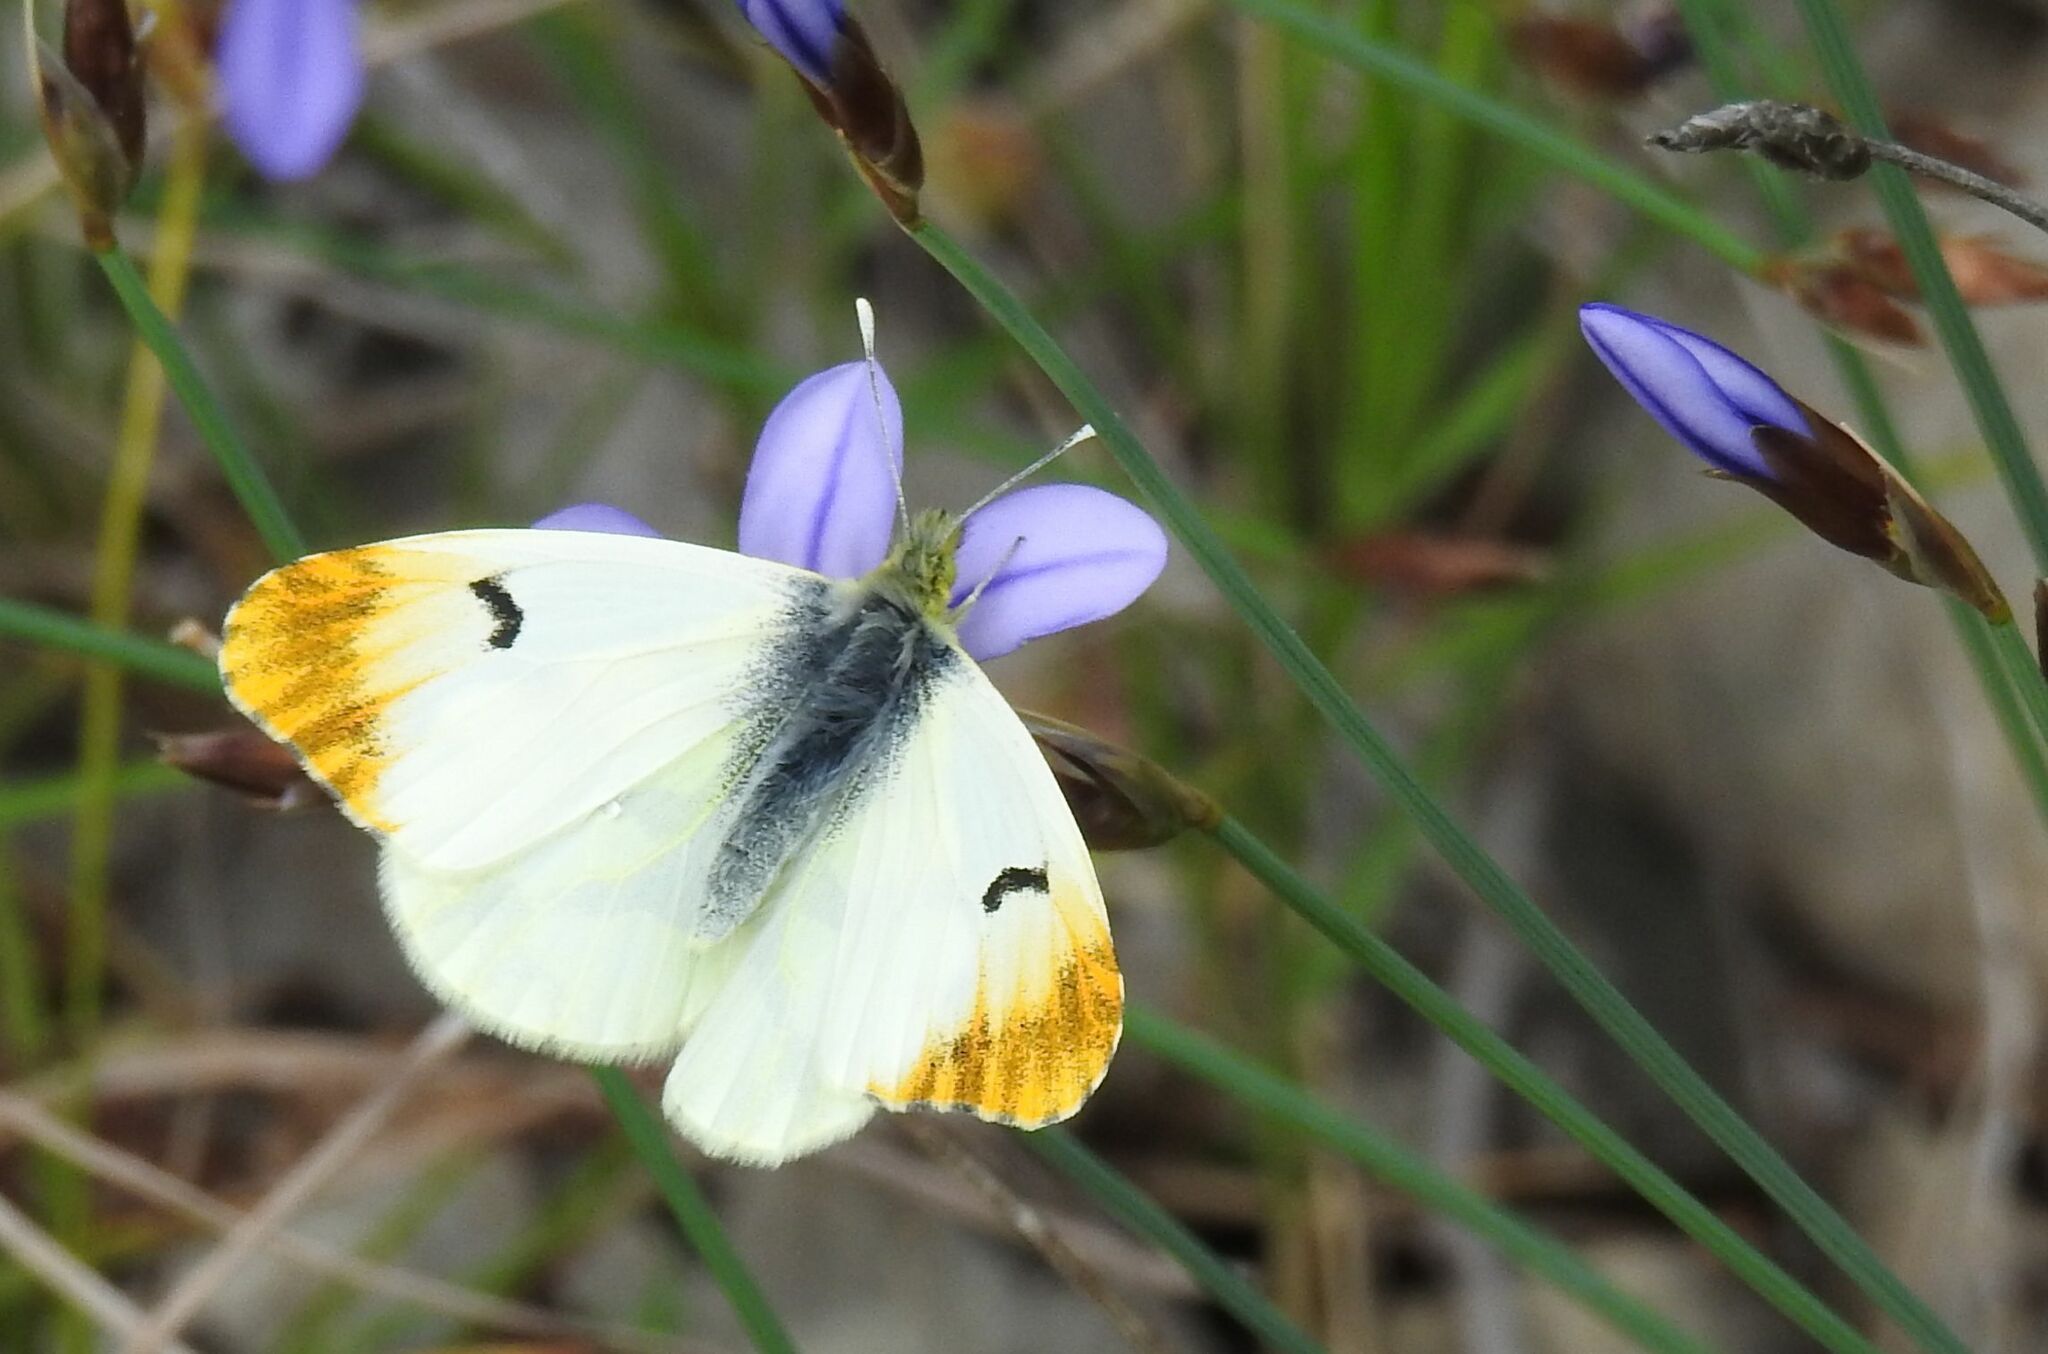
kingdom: Animalia
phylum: Arthropoda
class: Insecta
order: Lepidoptera
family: Pieridae
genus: Anthocharis
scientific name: Anthocharis euphenoides
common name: Provence orange-tip
